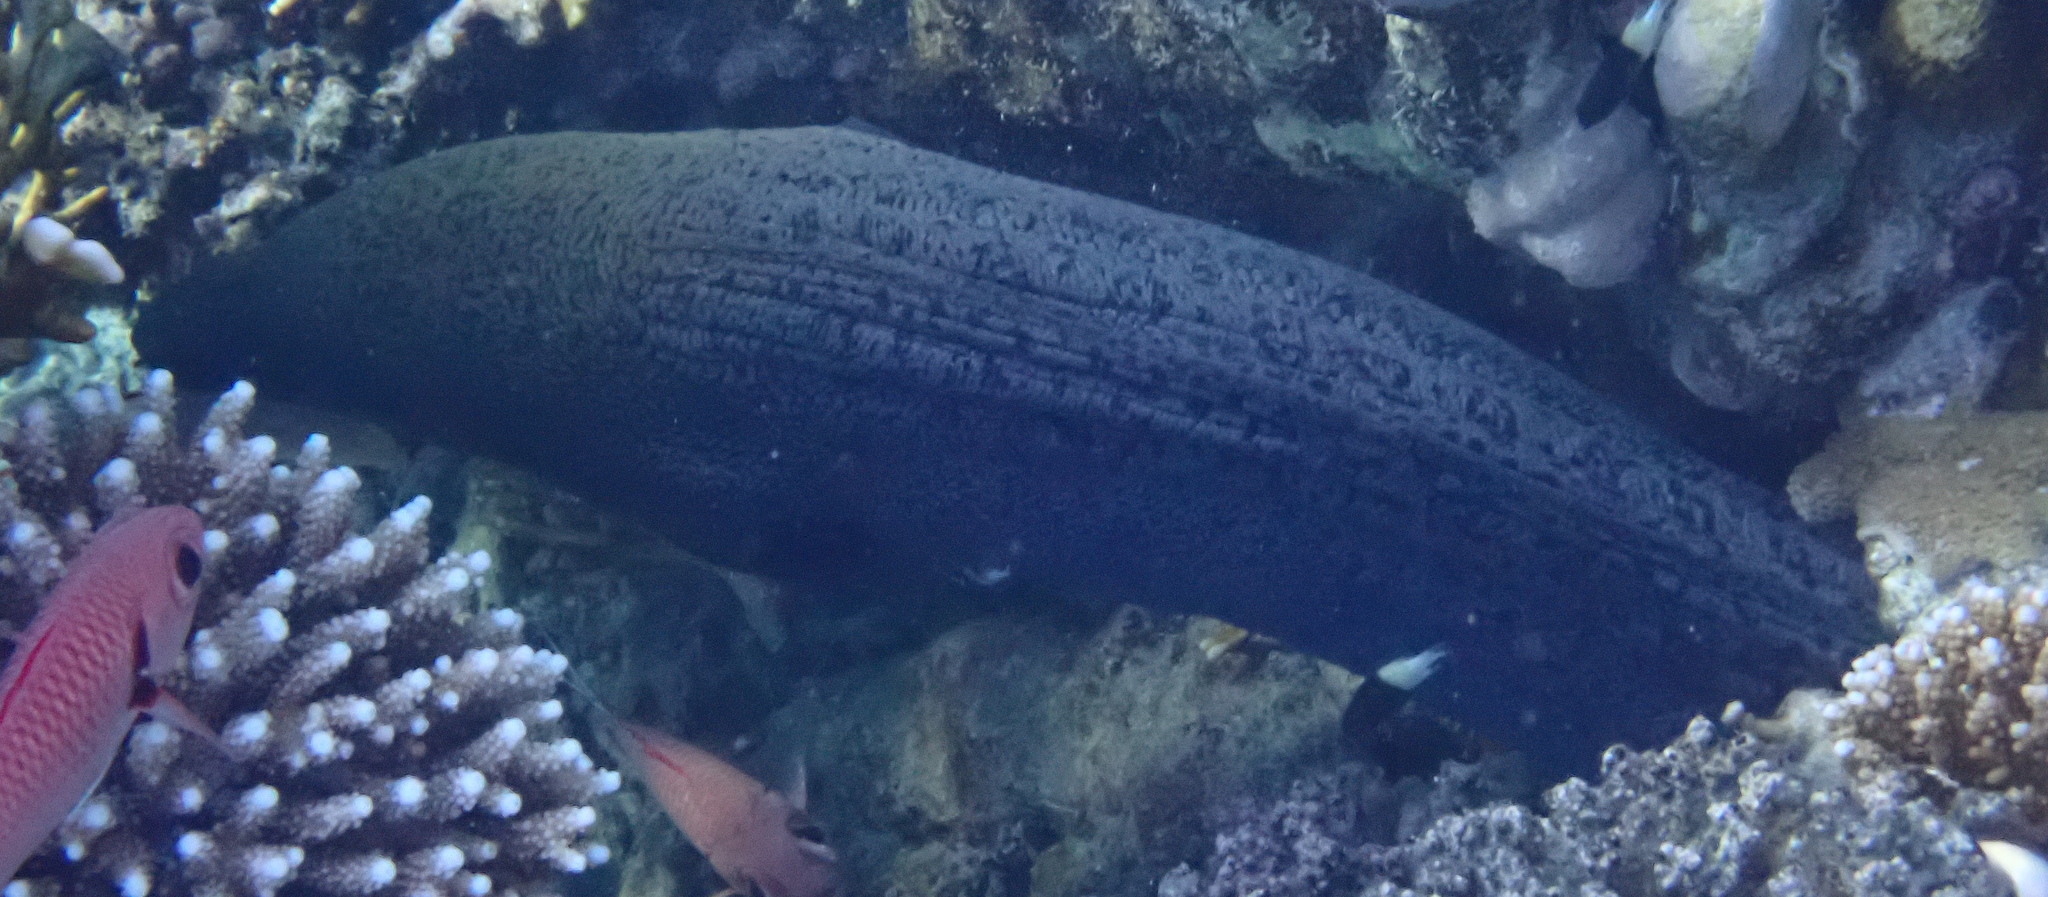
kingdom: Animalia
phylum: Chordata
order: Anguilliformes
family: Muraenidae
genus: Gymnothorax
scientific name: Gymnothorax javanicus
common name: Giant moray
